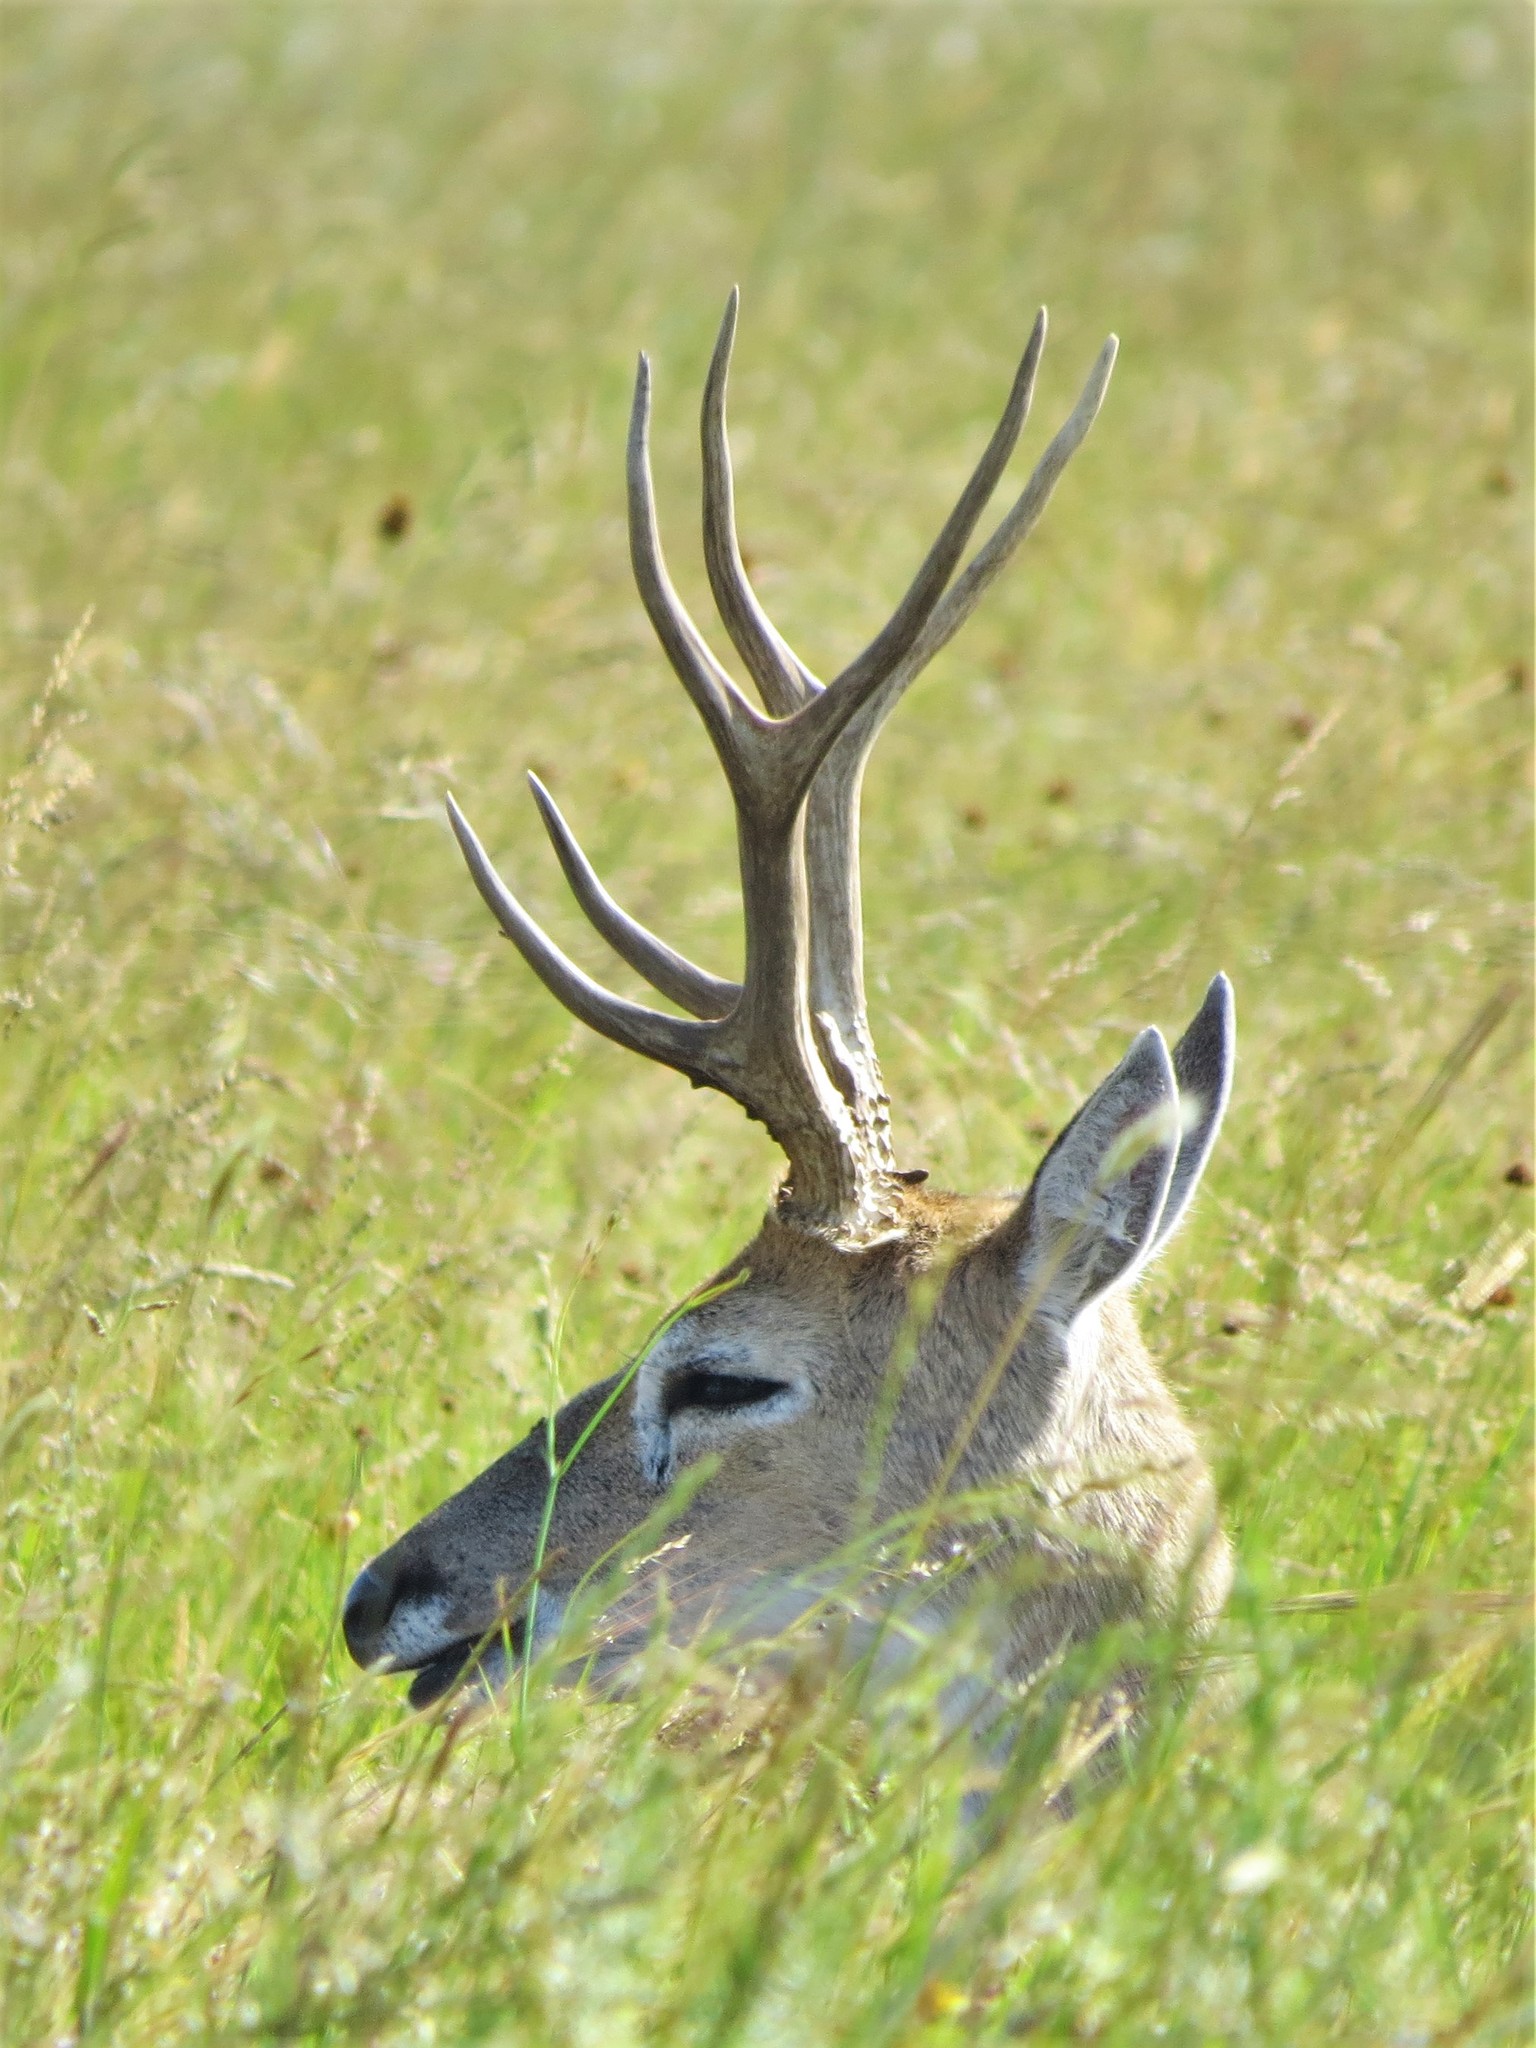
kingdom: Animalia
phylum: Chordata
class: Mammalia
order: Artiodactyla
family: Cervidae
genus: Ozotoceros
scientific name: Ozotoceros bezoarticus
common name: Pampas deer
